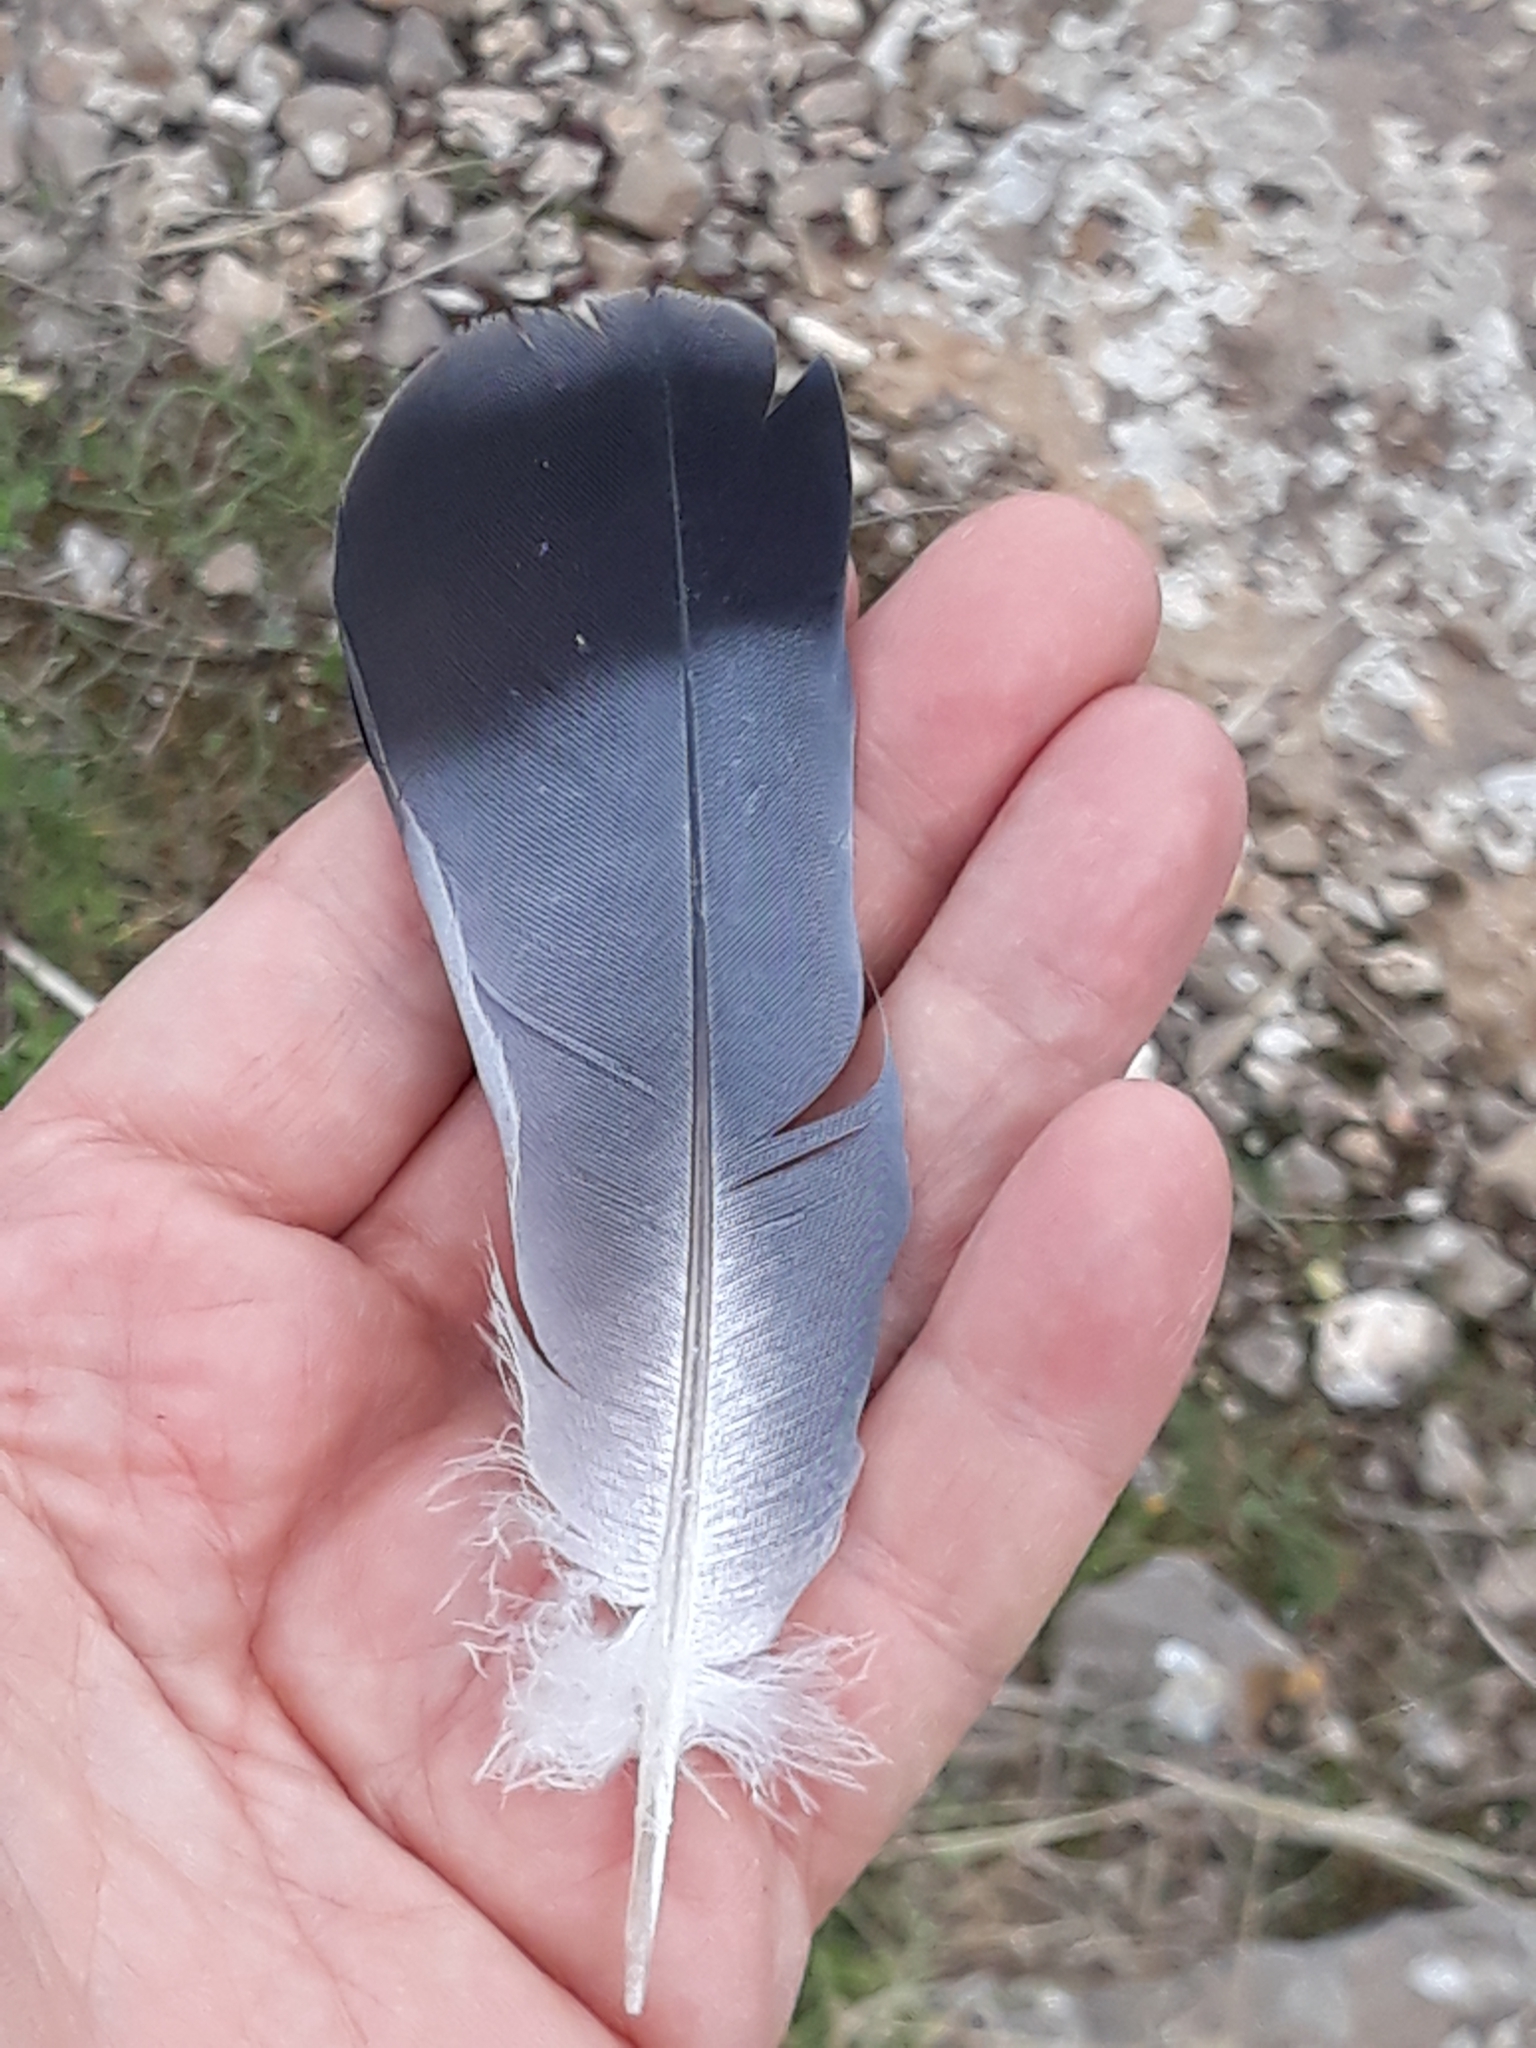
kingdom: Animalia
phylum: Chordata
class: Aves
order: Columbiformes
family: Columbidae
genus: Columba
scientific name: Columba livia
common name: Rock pigeon
